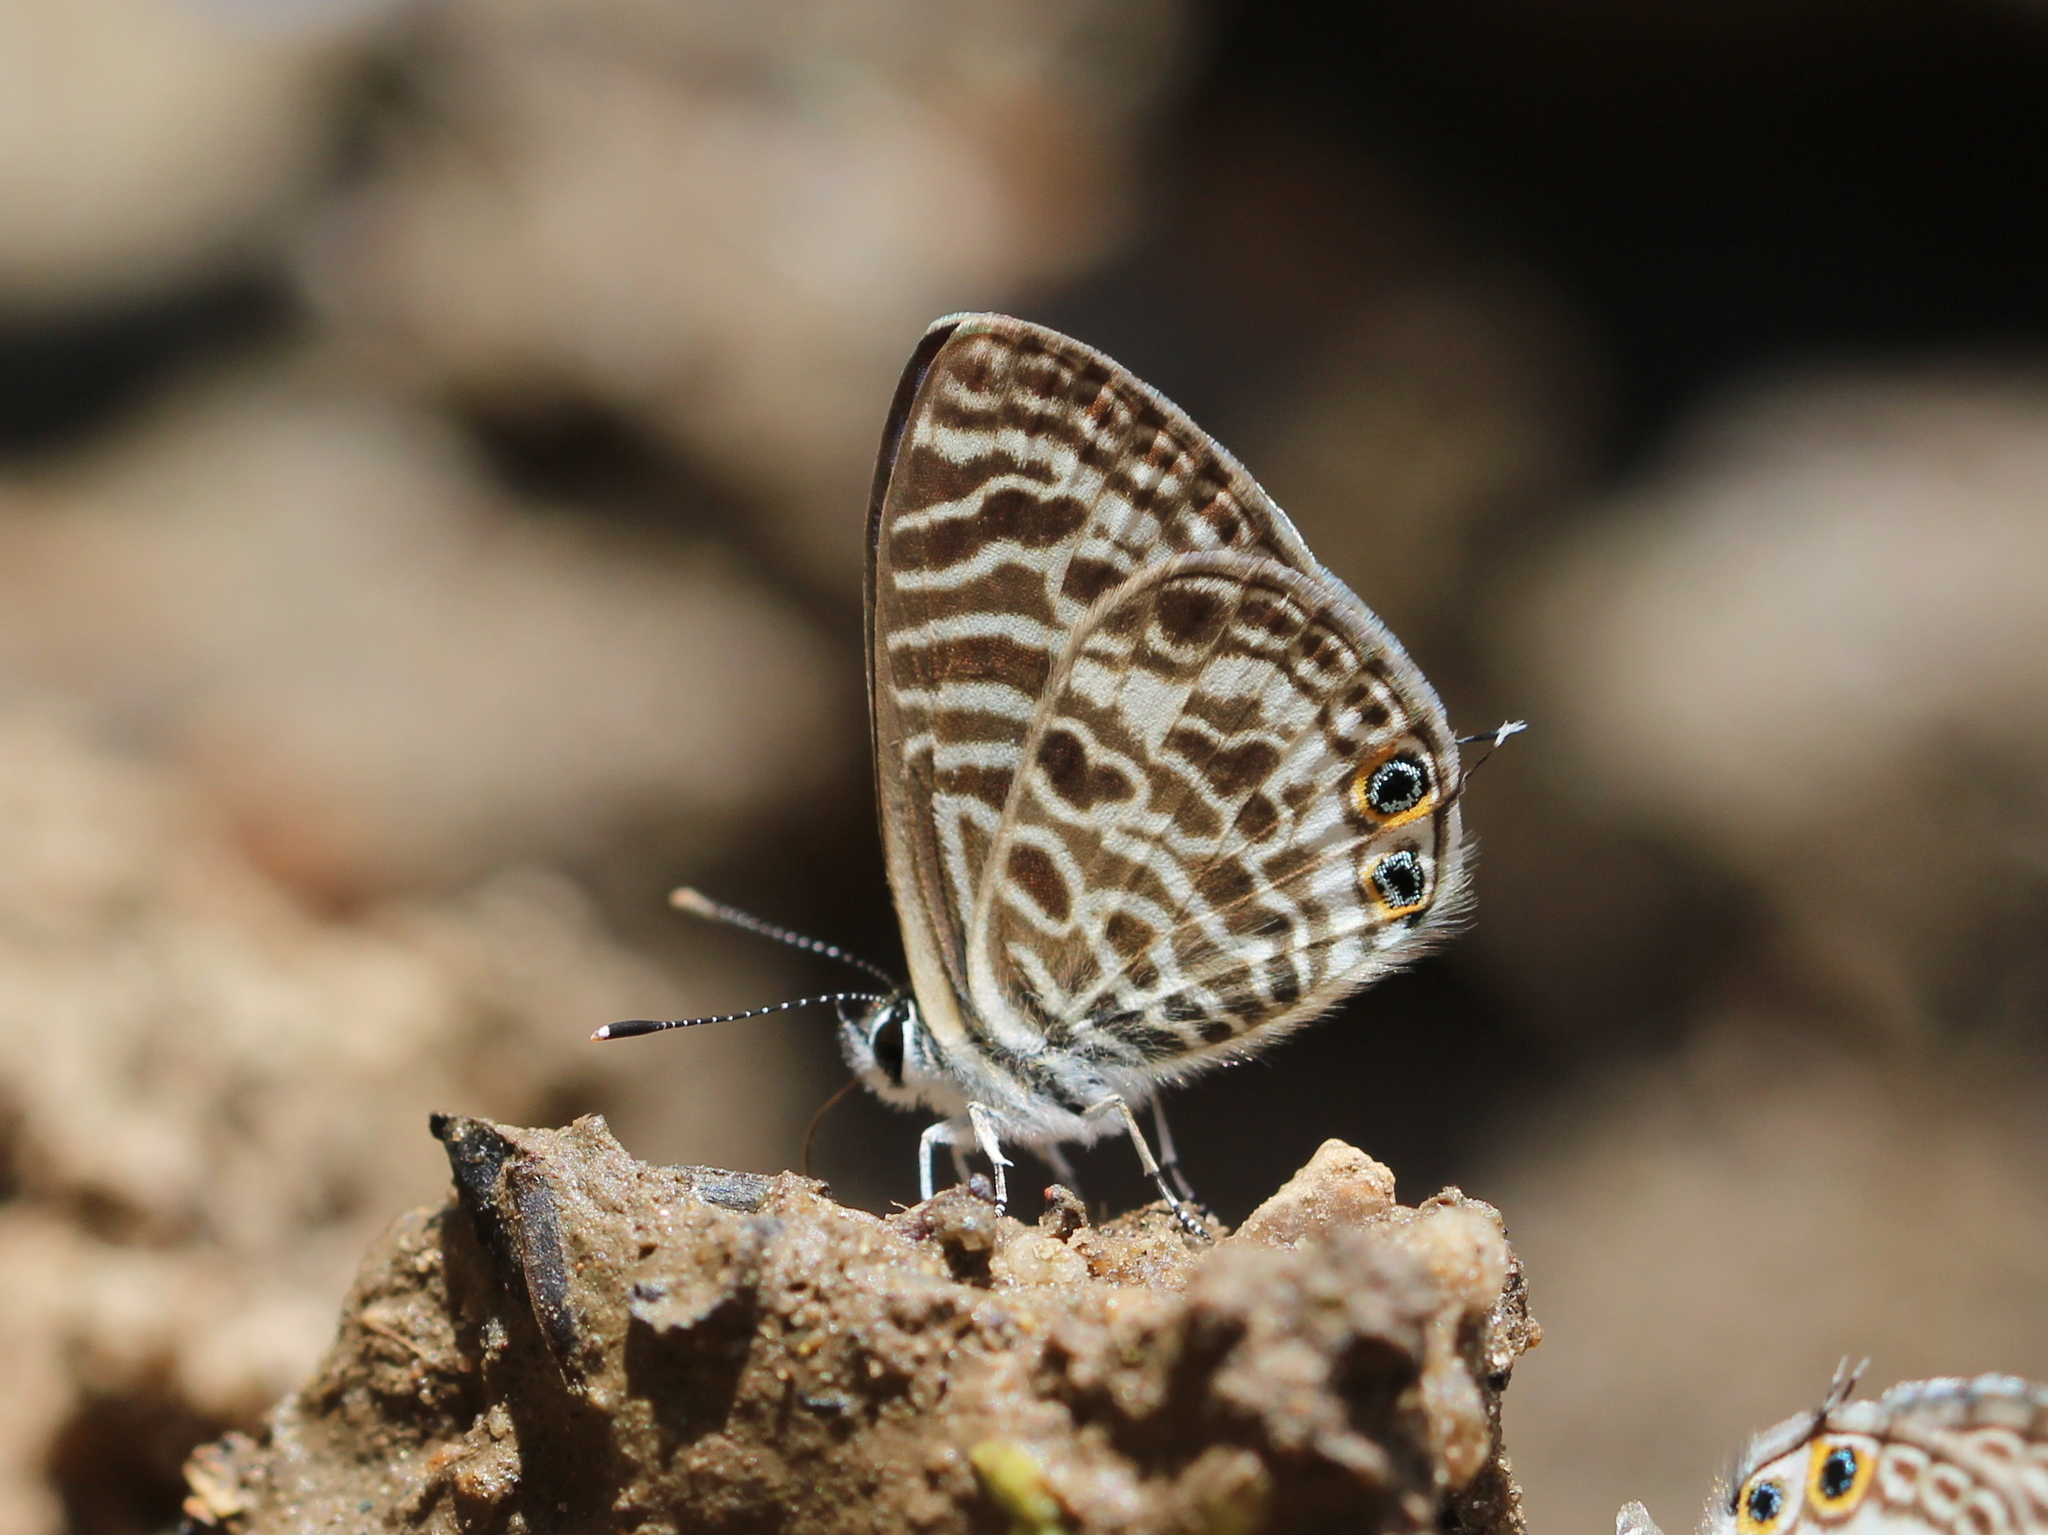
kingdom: Animalia
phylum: Arthropoda
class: Insecta
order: Lepidoptera
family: Lycaenidae
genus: Leptotes
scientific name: Leptotes plinius
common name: Zebra blue
